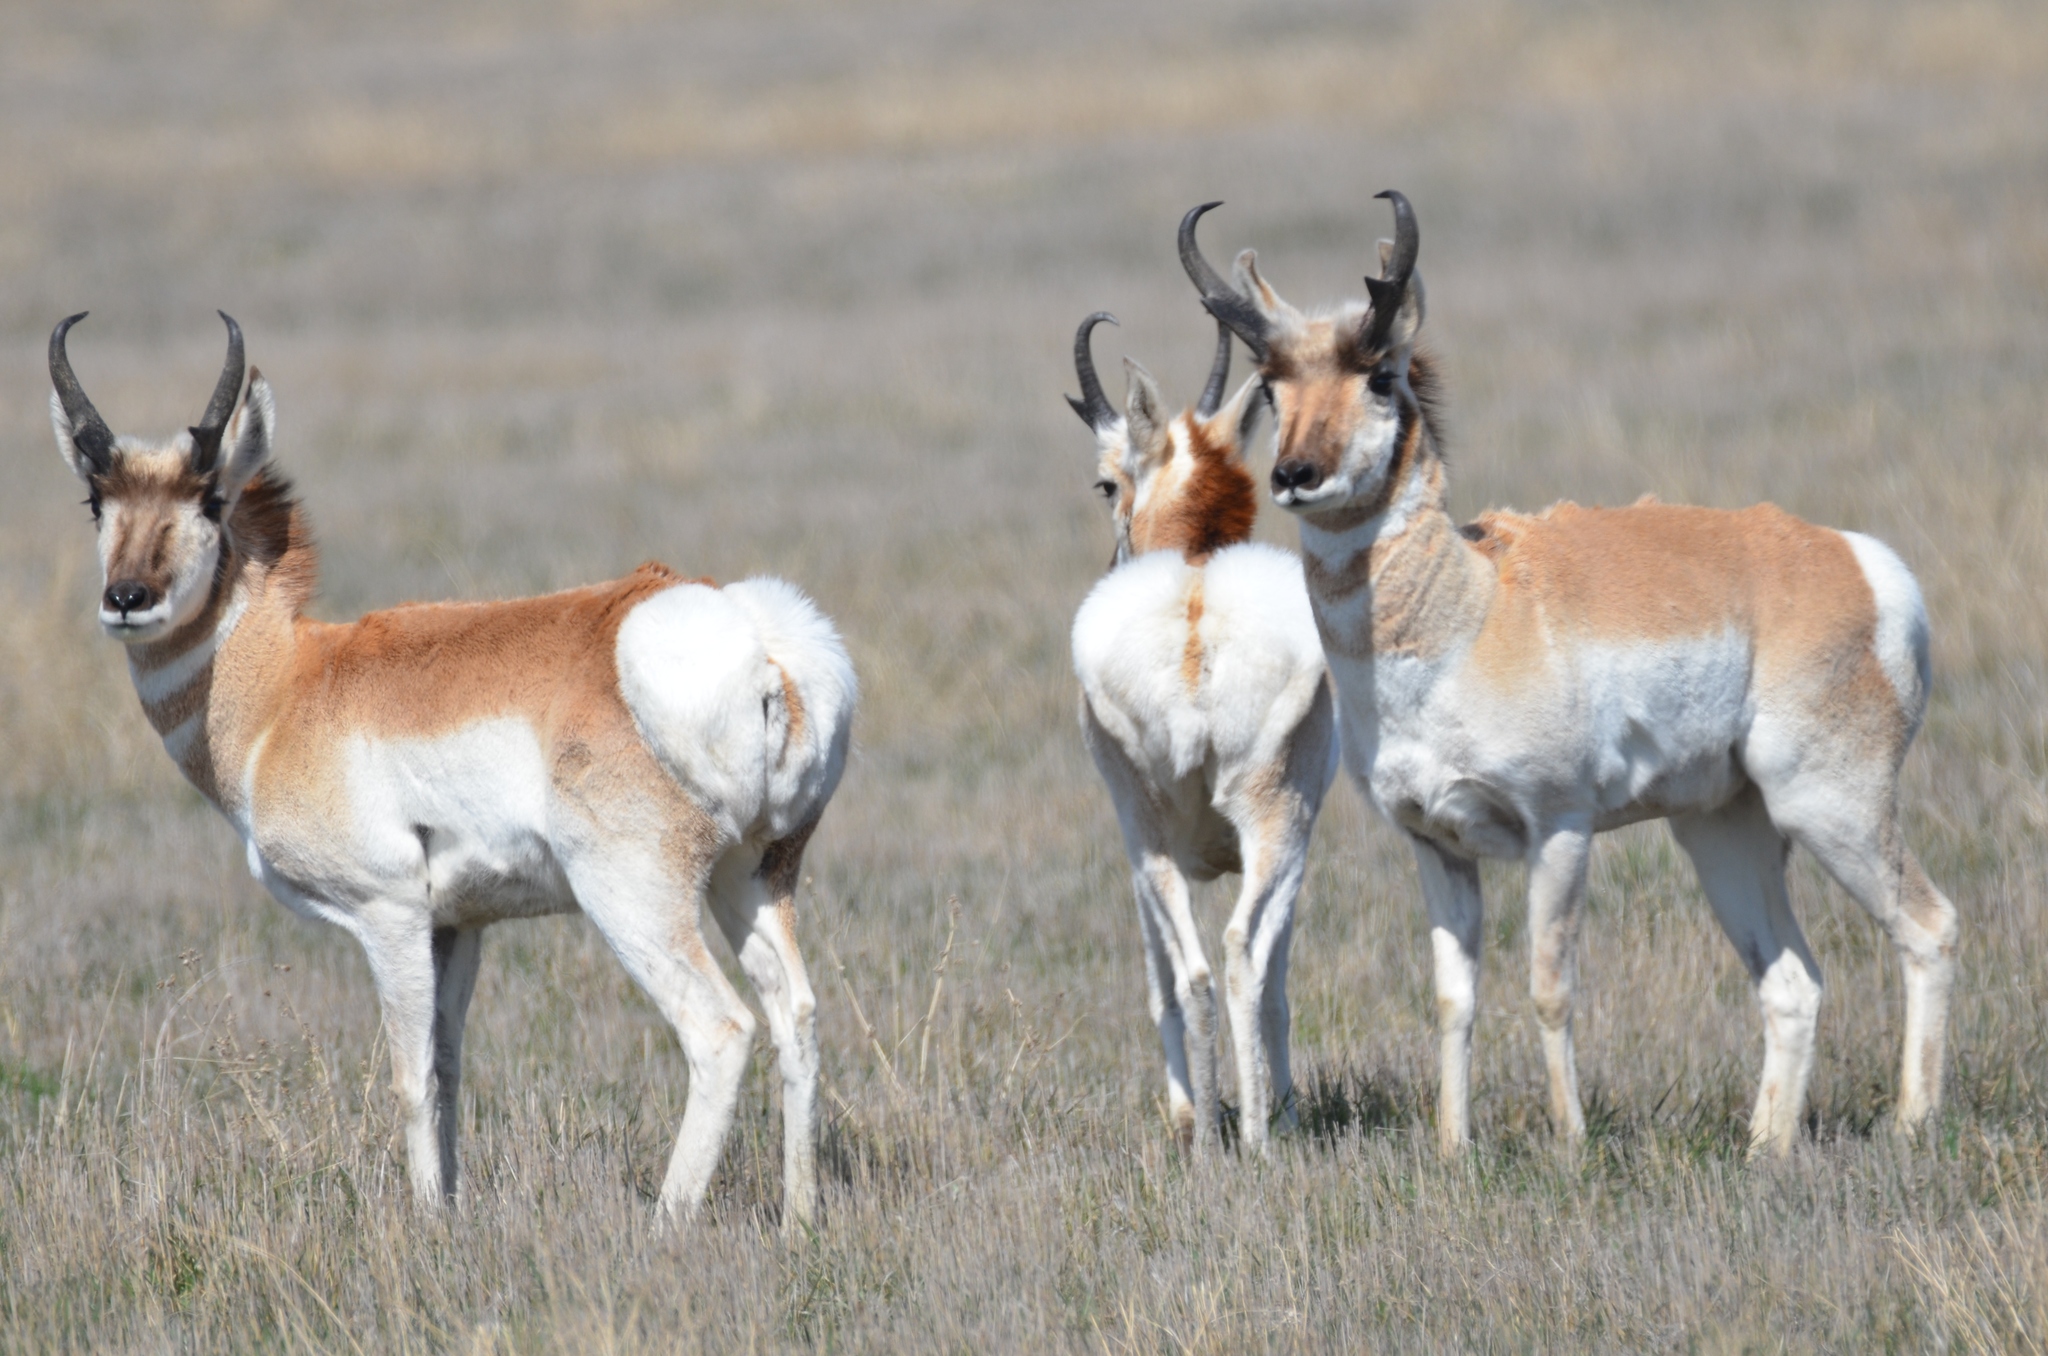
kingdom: Animalia
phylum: Chordata
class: Mammalia
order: Artiodactyla
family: Antilocapridae
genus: Antilocapra
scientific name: Antilocapra americana
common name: Pronghorn
